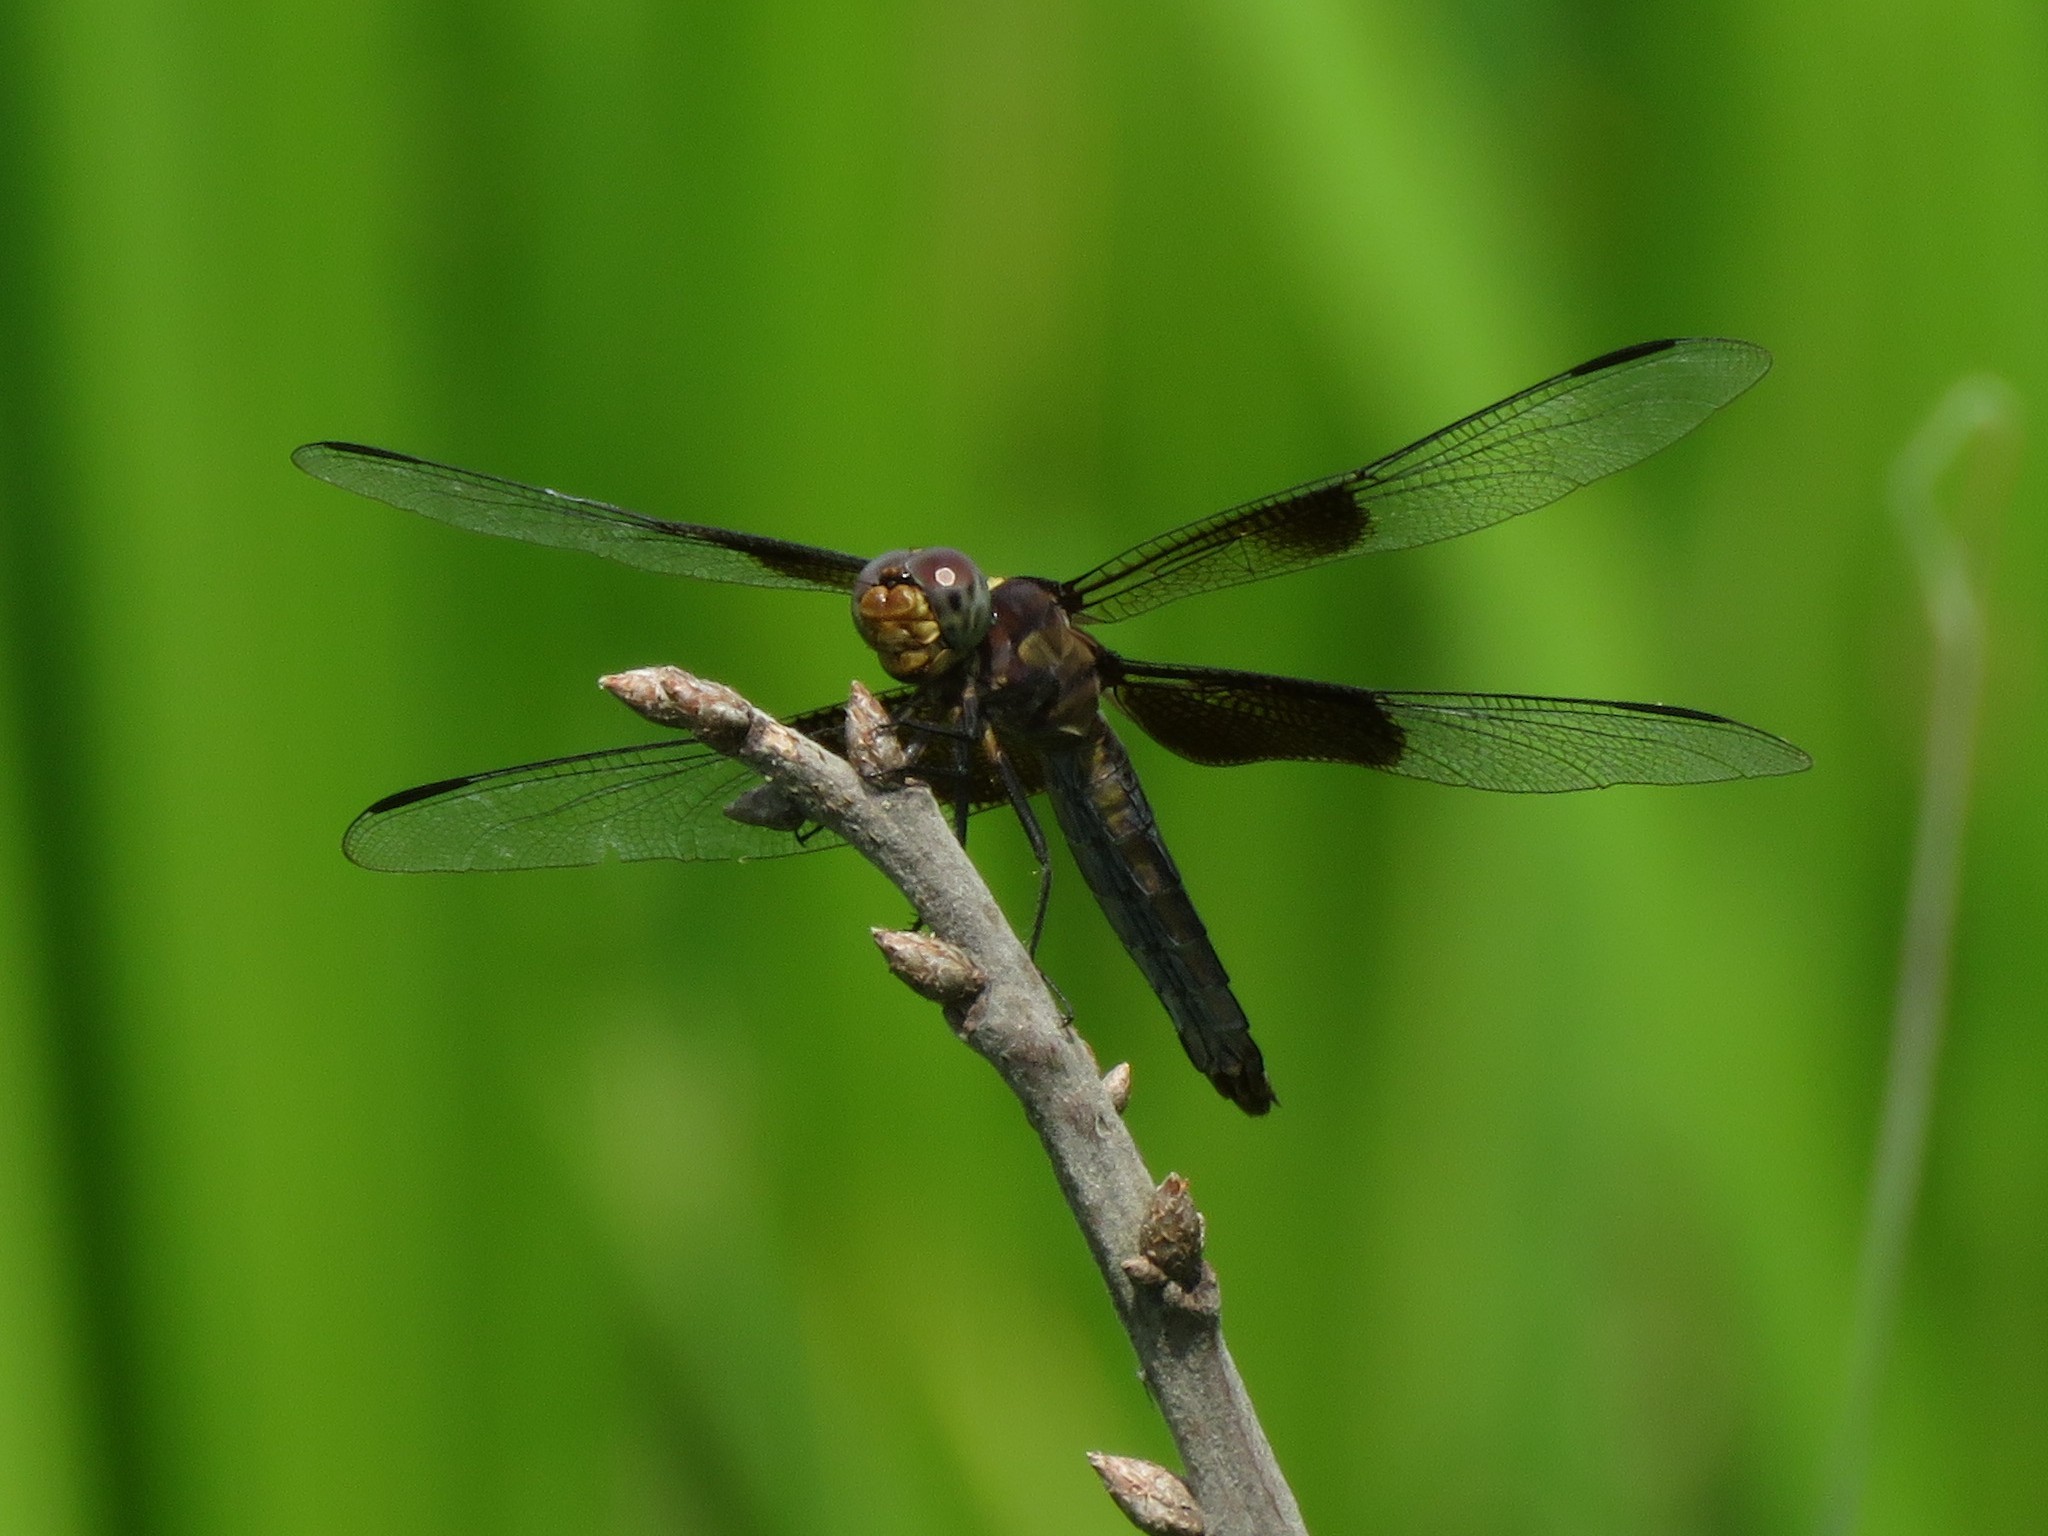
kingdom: Animalia
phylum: Arthropoda
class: Insecta
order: Odonata
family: Libellulidae
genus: Libellula
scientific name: Libellula luctuosa
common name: Widow skimmer
